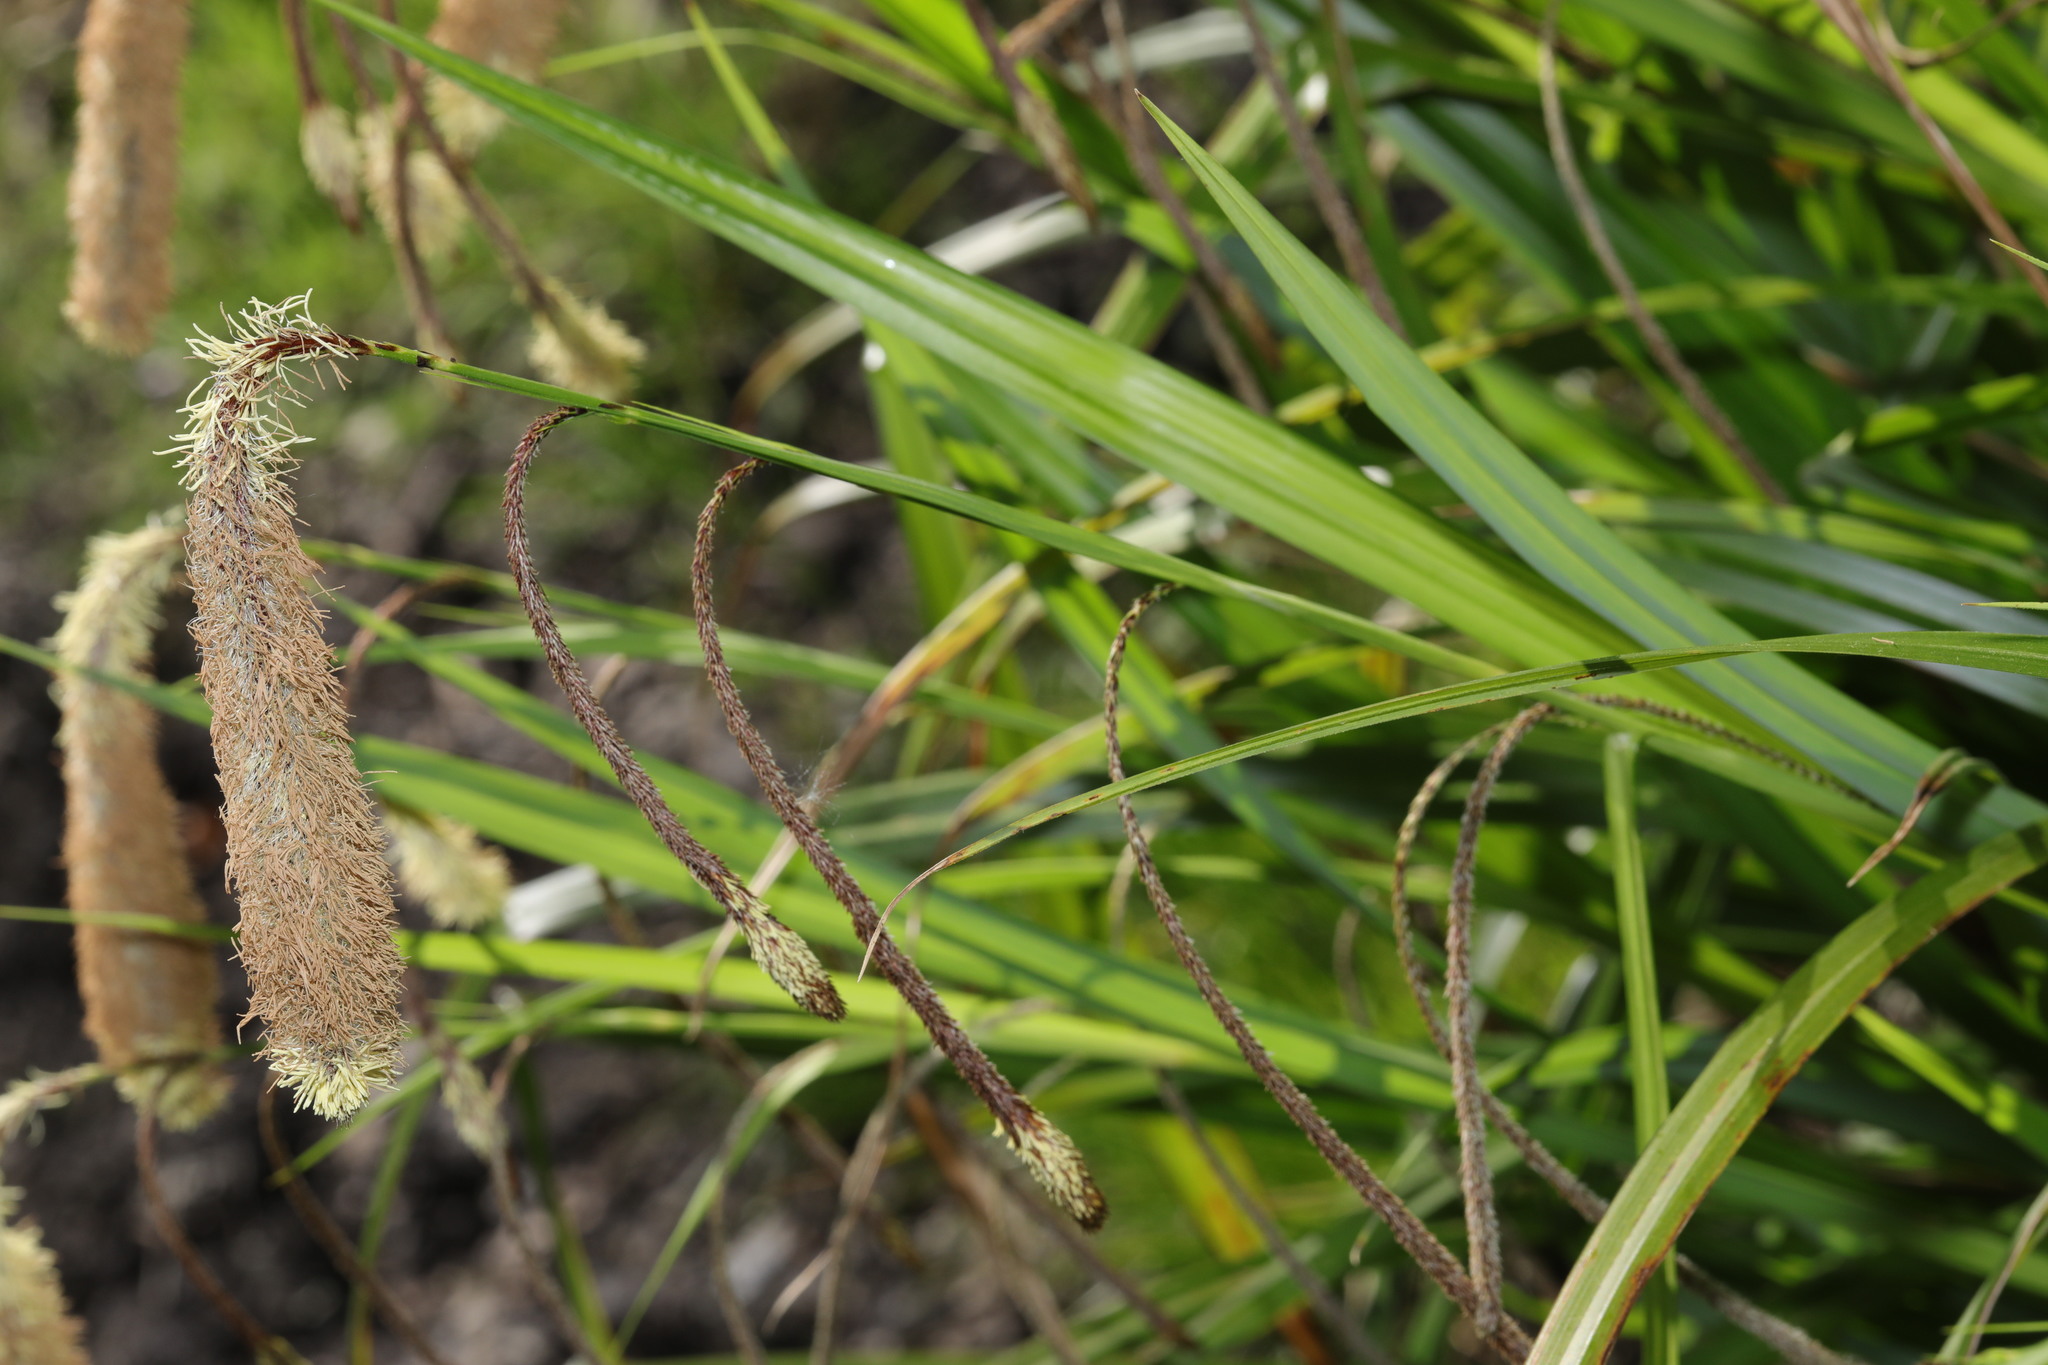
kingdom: Plantae
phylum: Tracheophyta
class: Liliopsida
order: Poales
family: Cyperaceae
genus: Carex
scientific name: Carex pendula
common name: Pendulous sedge
